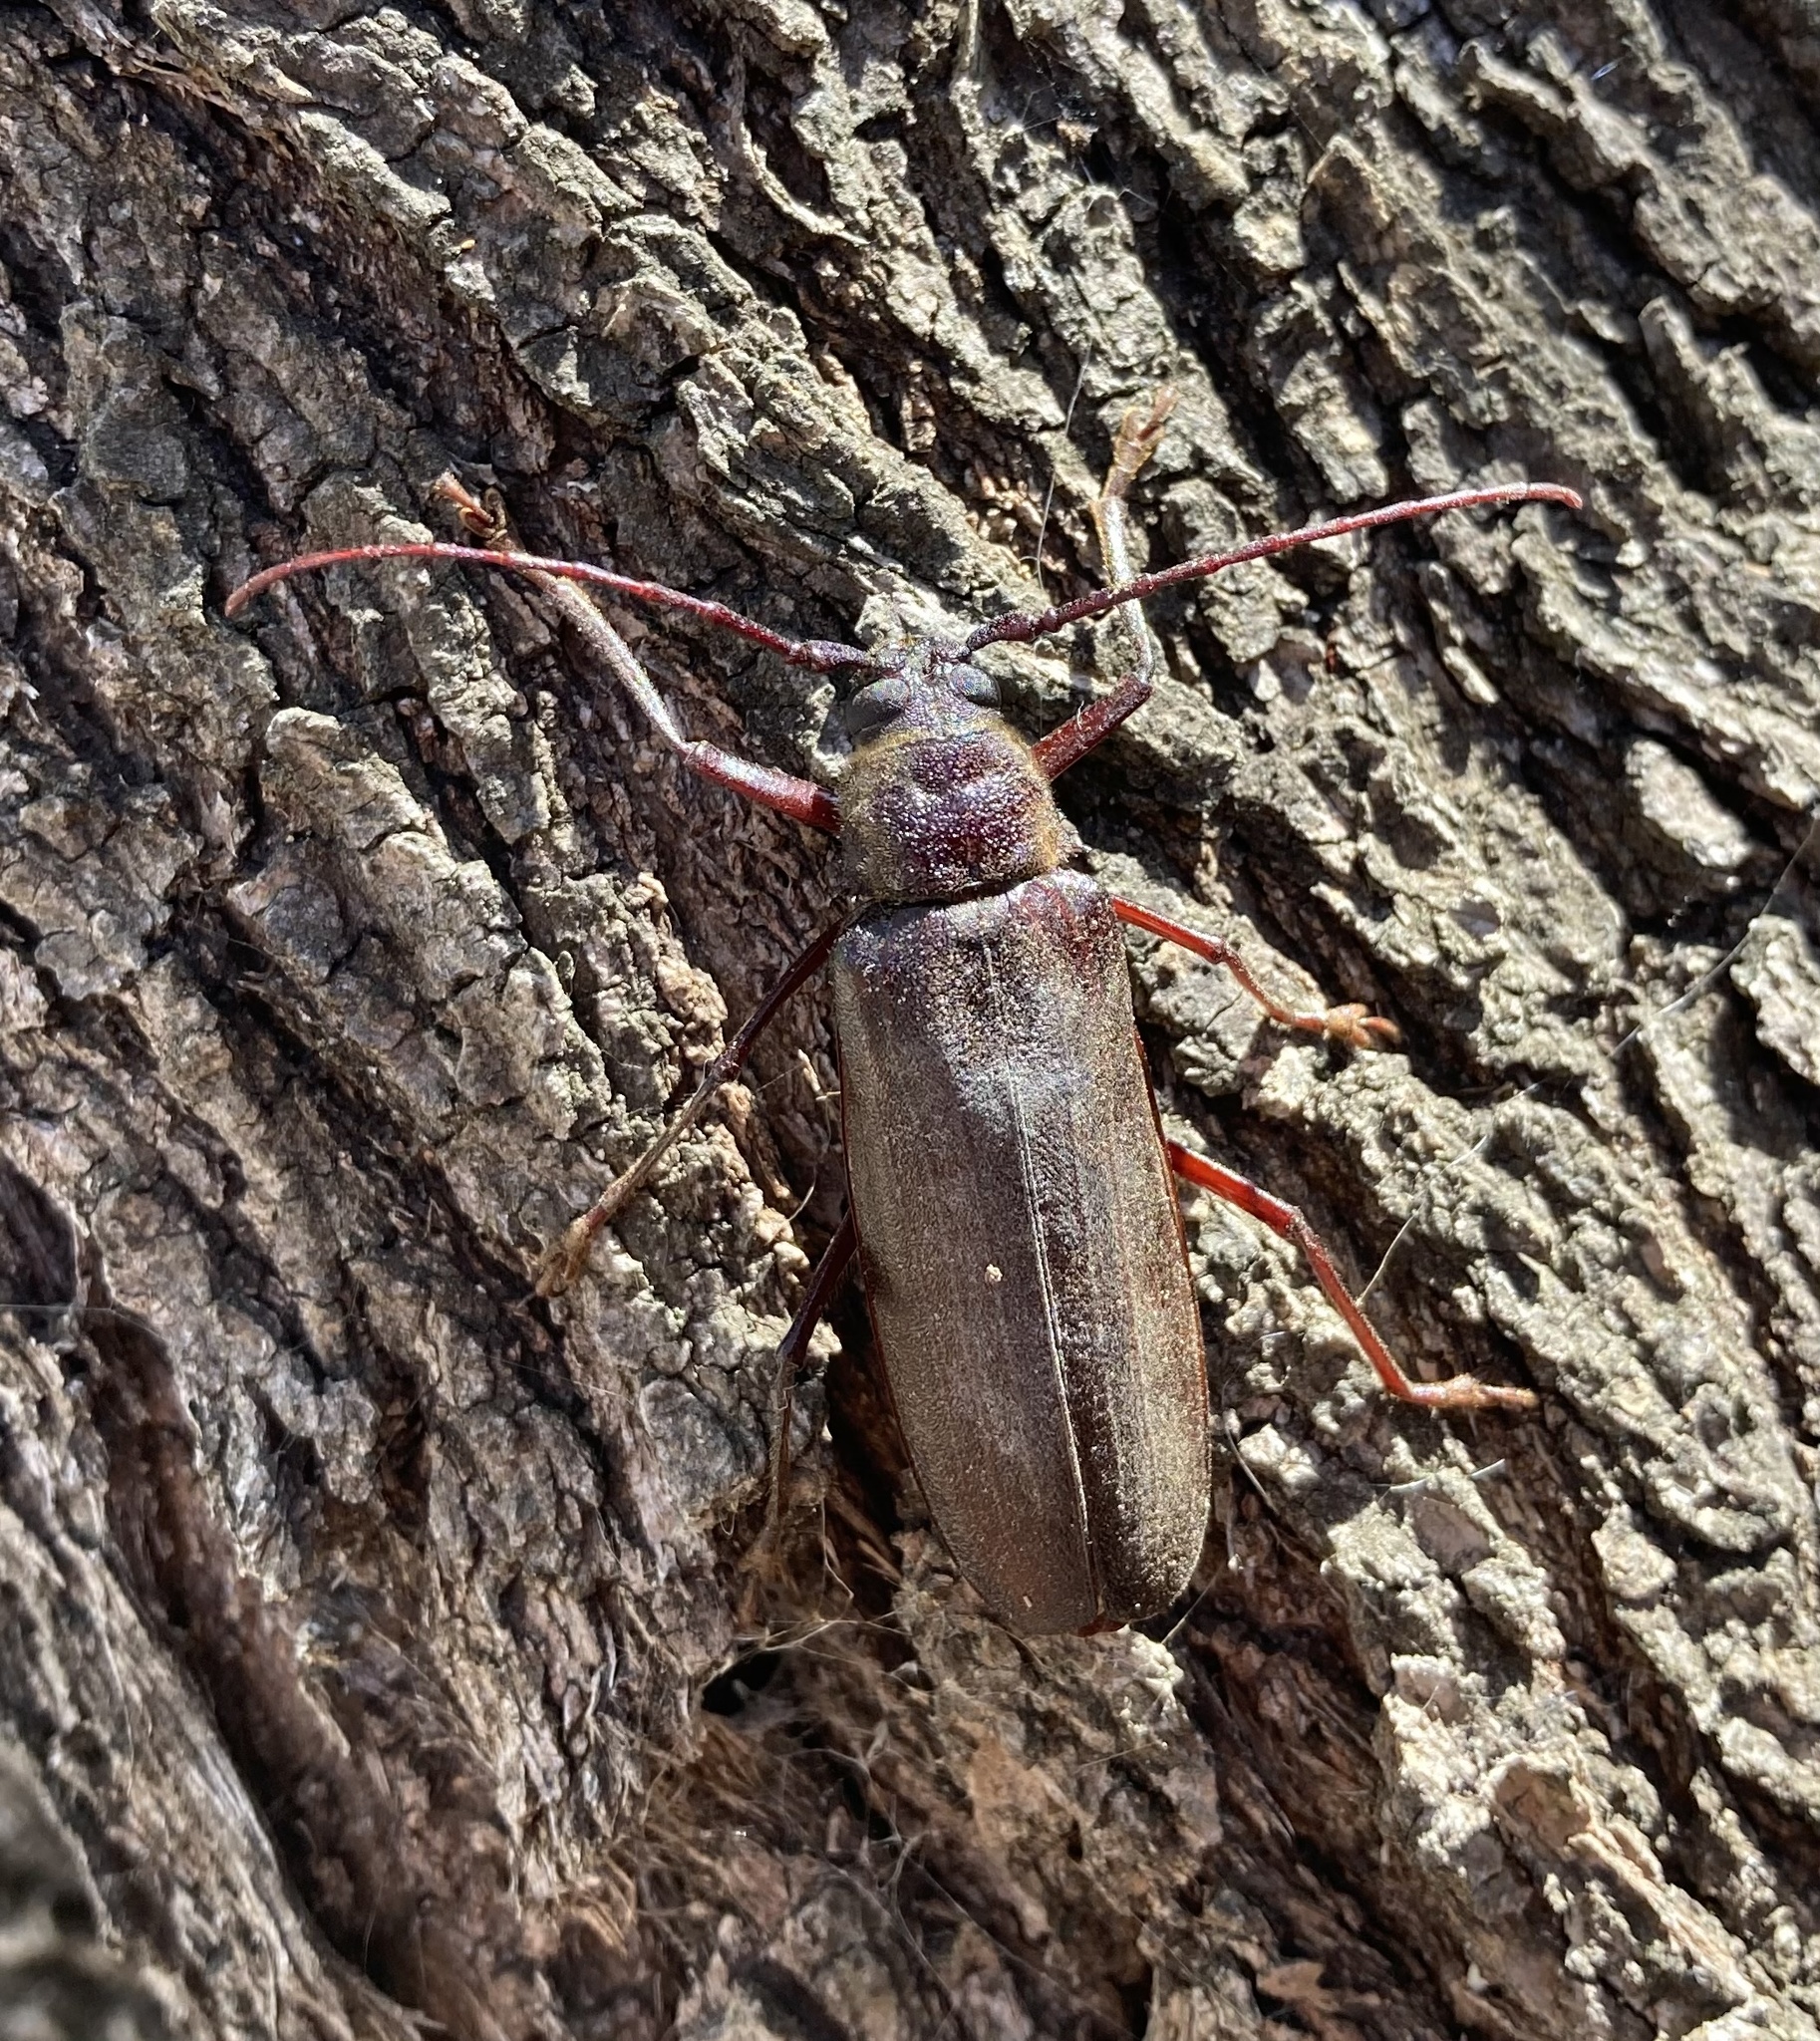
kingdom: Animalia
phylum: Arthropoda
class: Insecta
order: Coleoptera
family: Cerambycidae
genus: Prinobius
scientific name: Prinobius myardi
